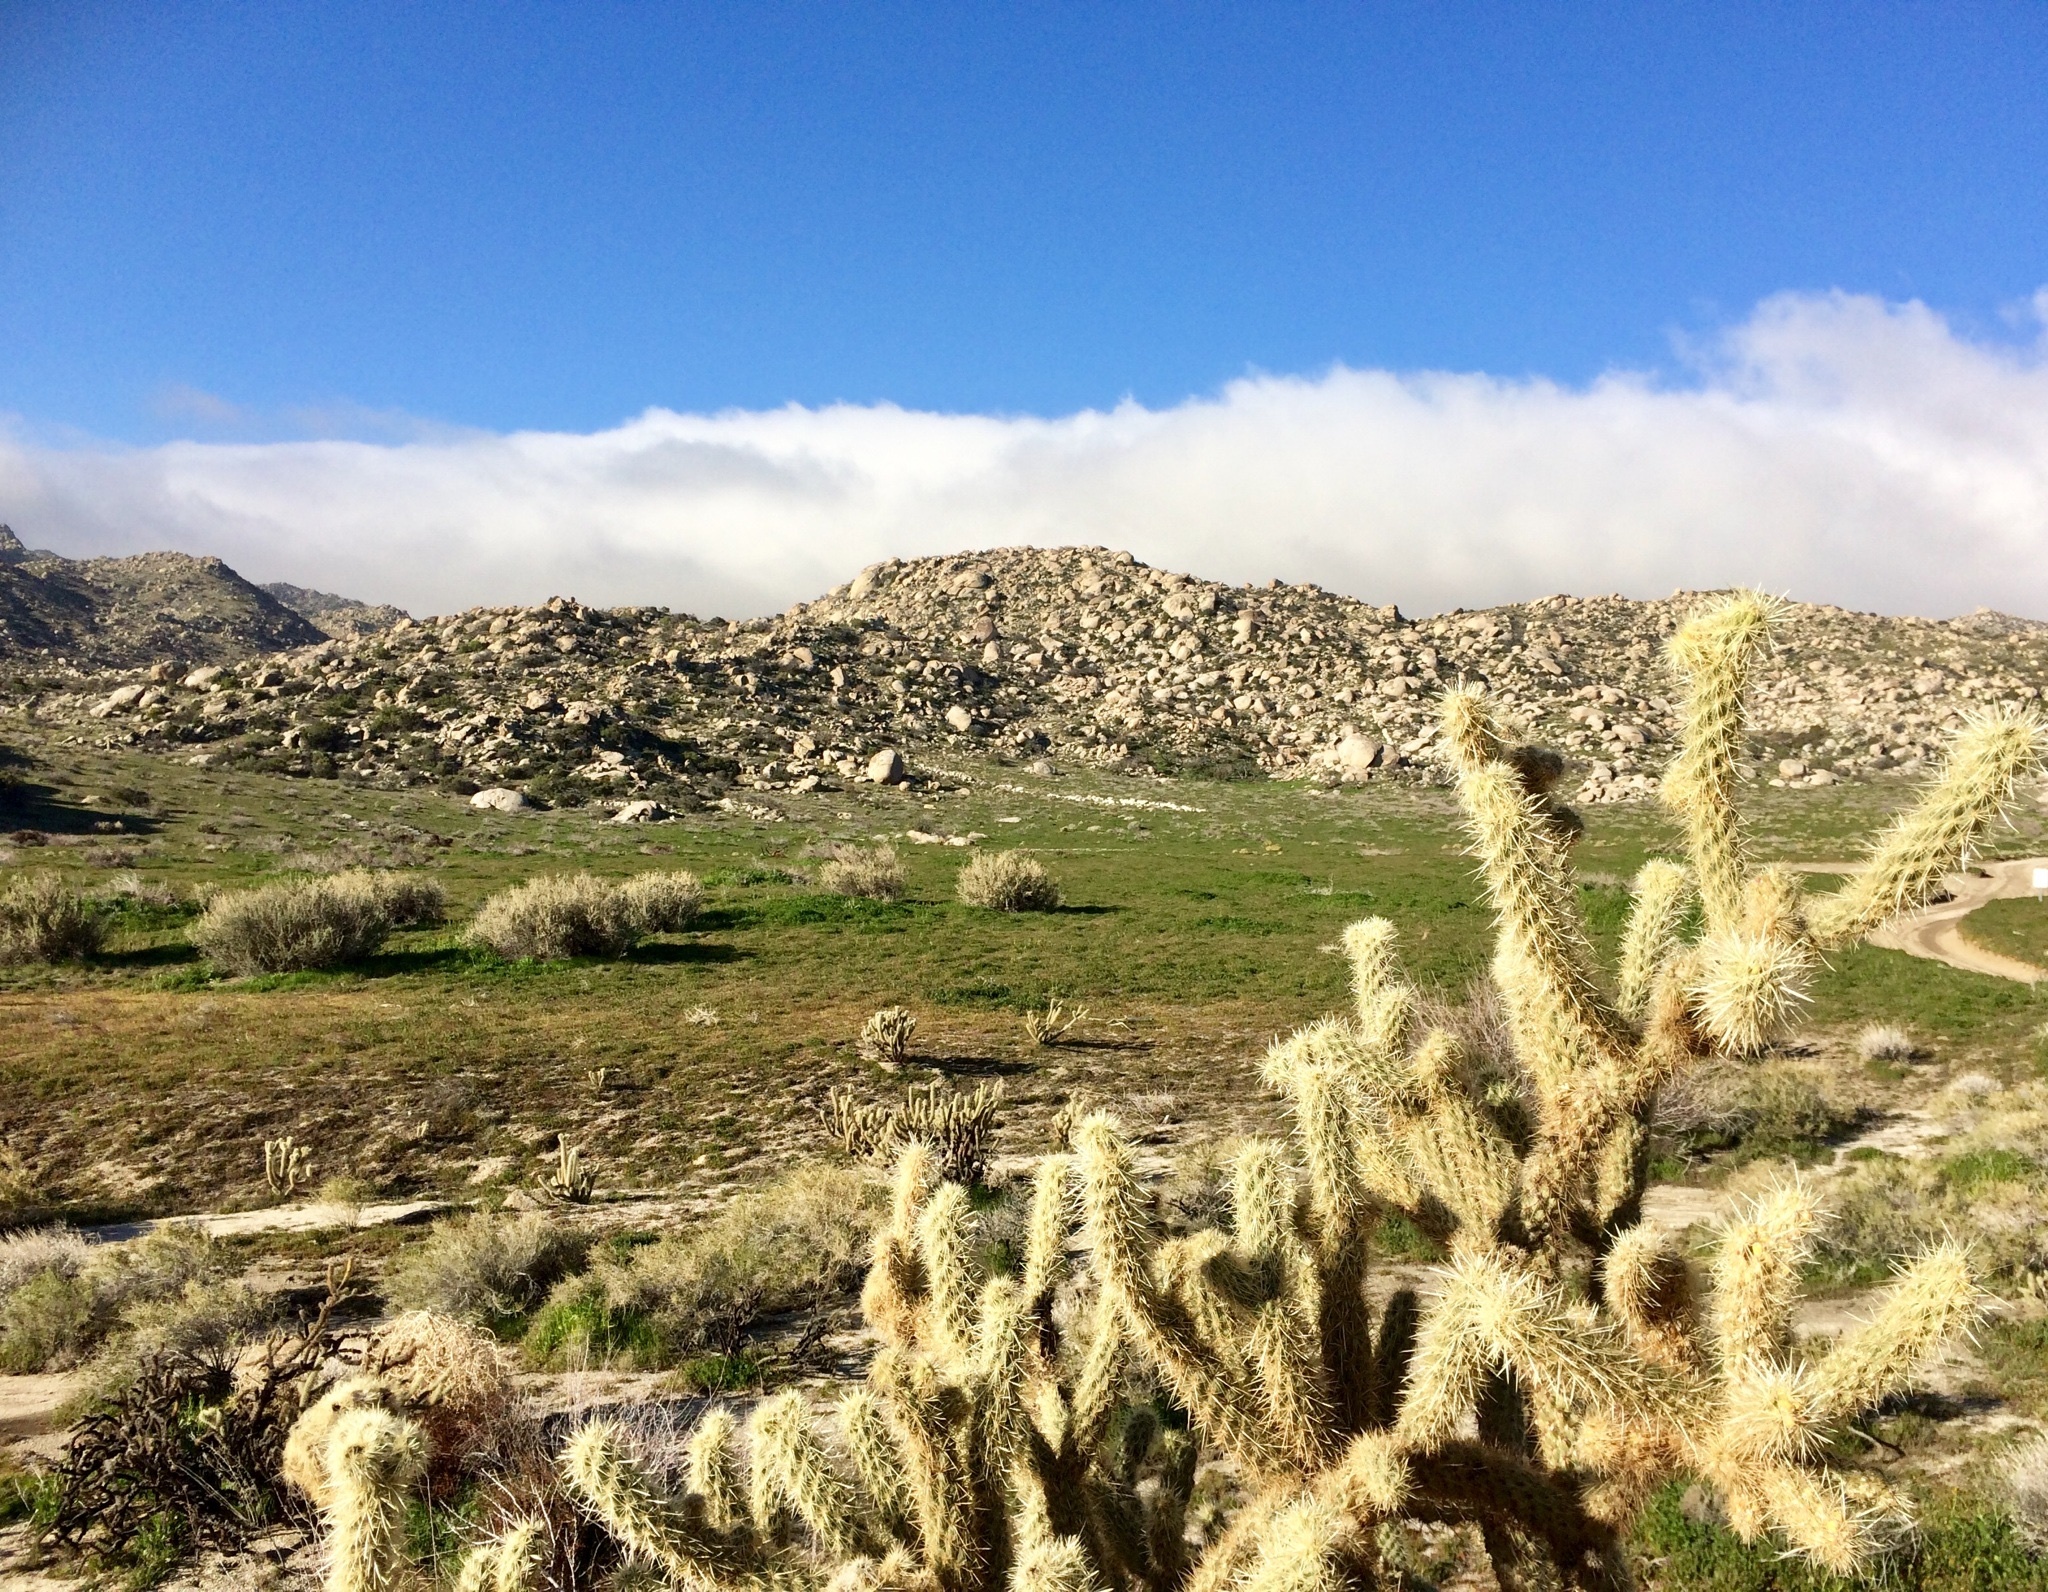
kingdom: Plantae
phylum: Tracheophyta
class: Magnoliopsida
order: Caryophyllales
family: Cactaceae
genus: Cylindropuntia
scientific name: Cylindropuntia ganderi
